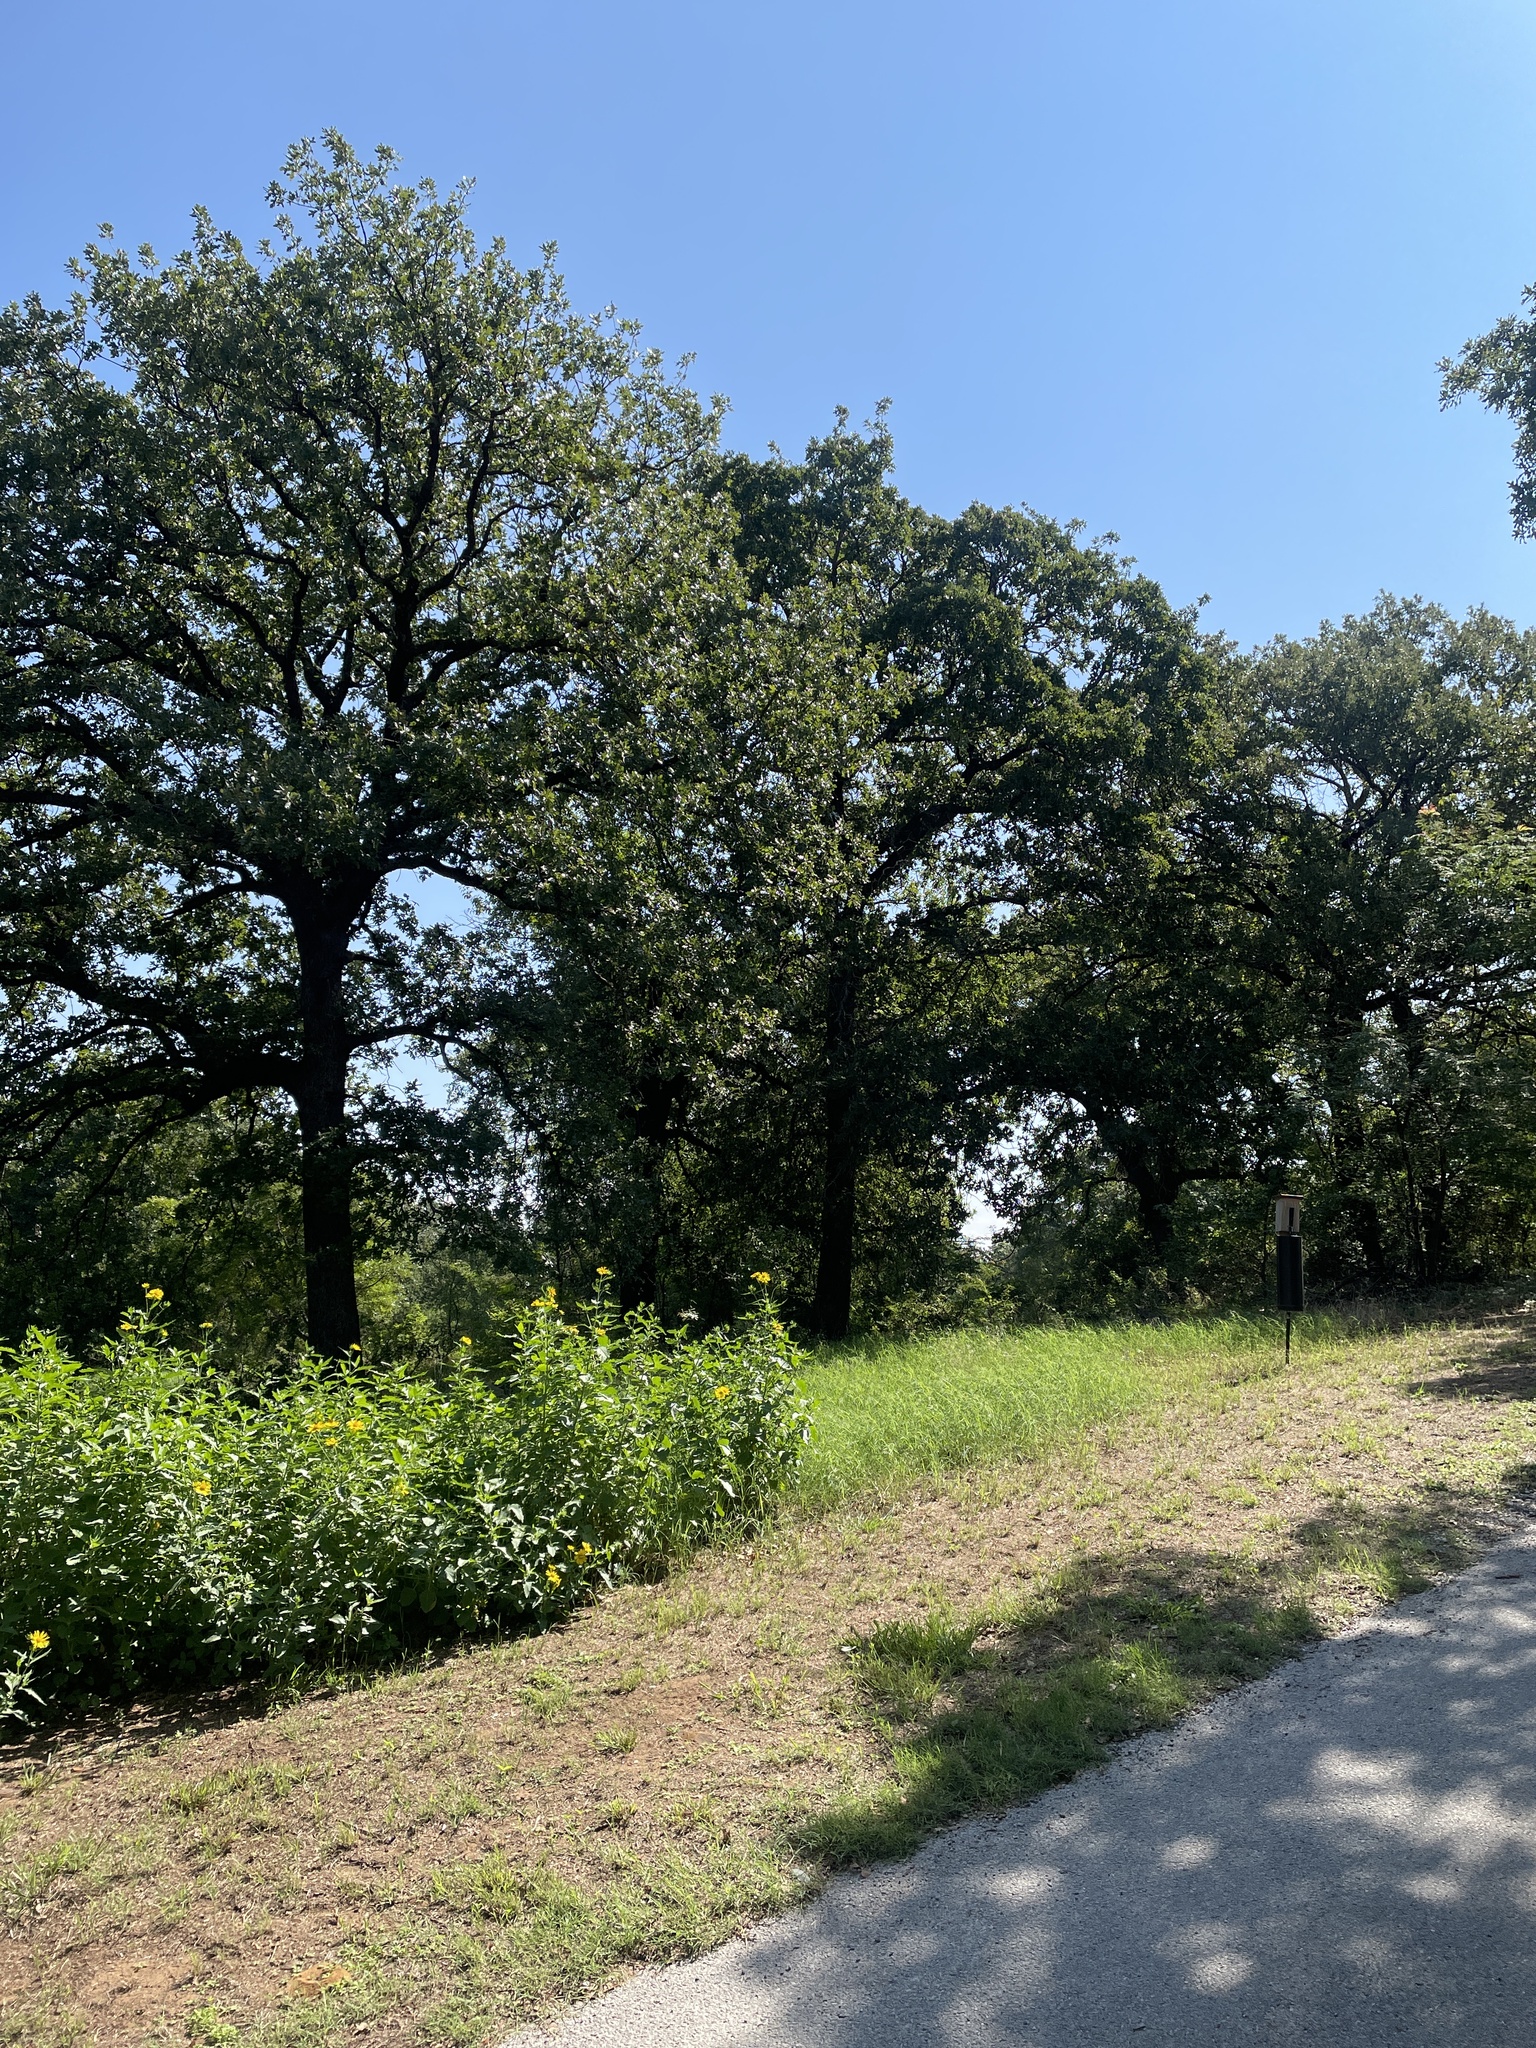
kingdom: Animalia
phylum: Chordata
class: Aves
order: Passeriformes
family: Icteridae
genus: Molothrus
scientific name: Molothrus ater
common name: Brown-headed cowbird
